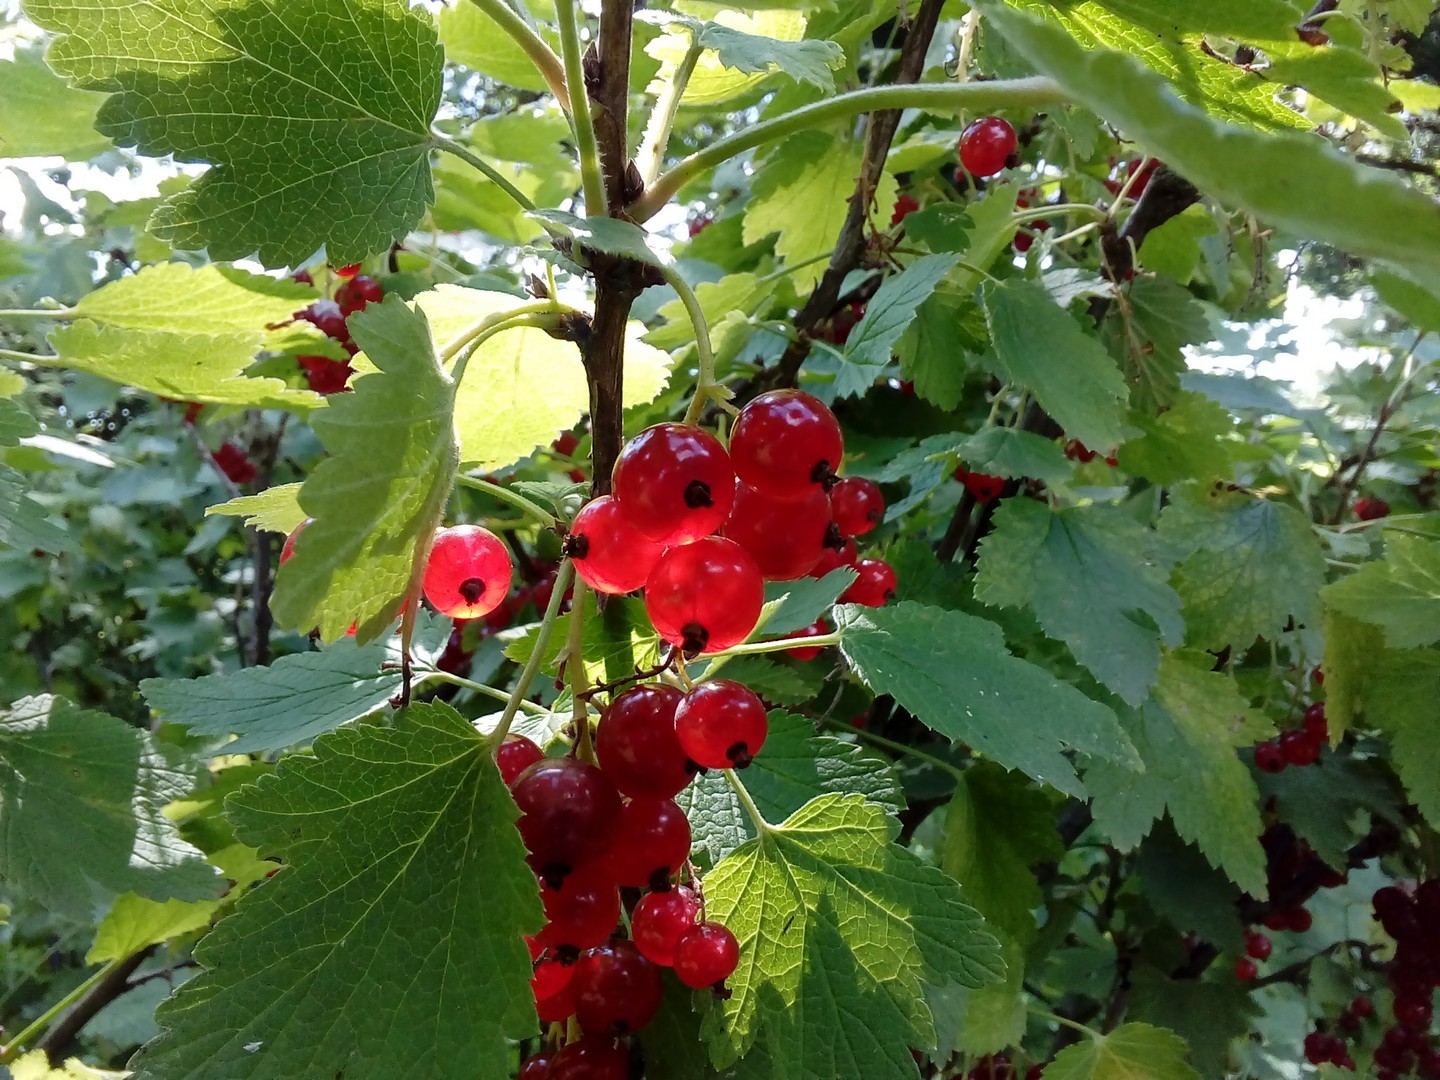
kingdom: Plantae
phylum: Tracheophyta
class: Magnoliopsida
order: Saxifragales
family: Grossulariaceae
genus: Ribes
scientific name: Ribes rubrum
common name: Red currant
